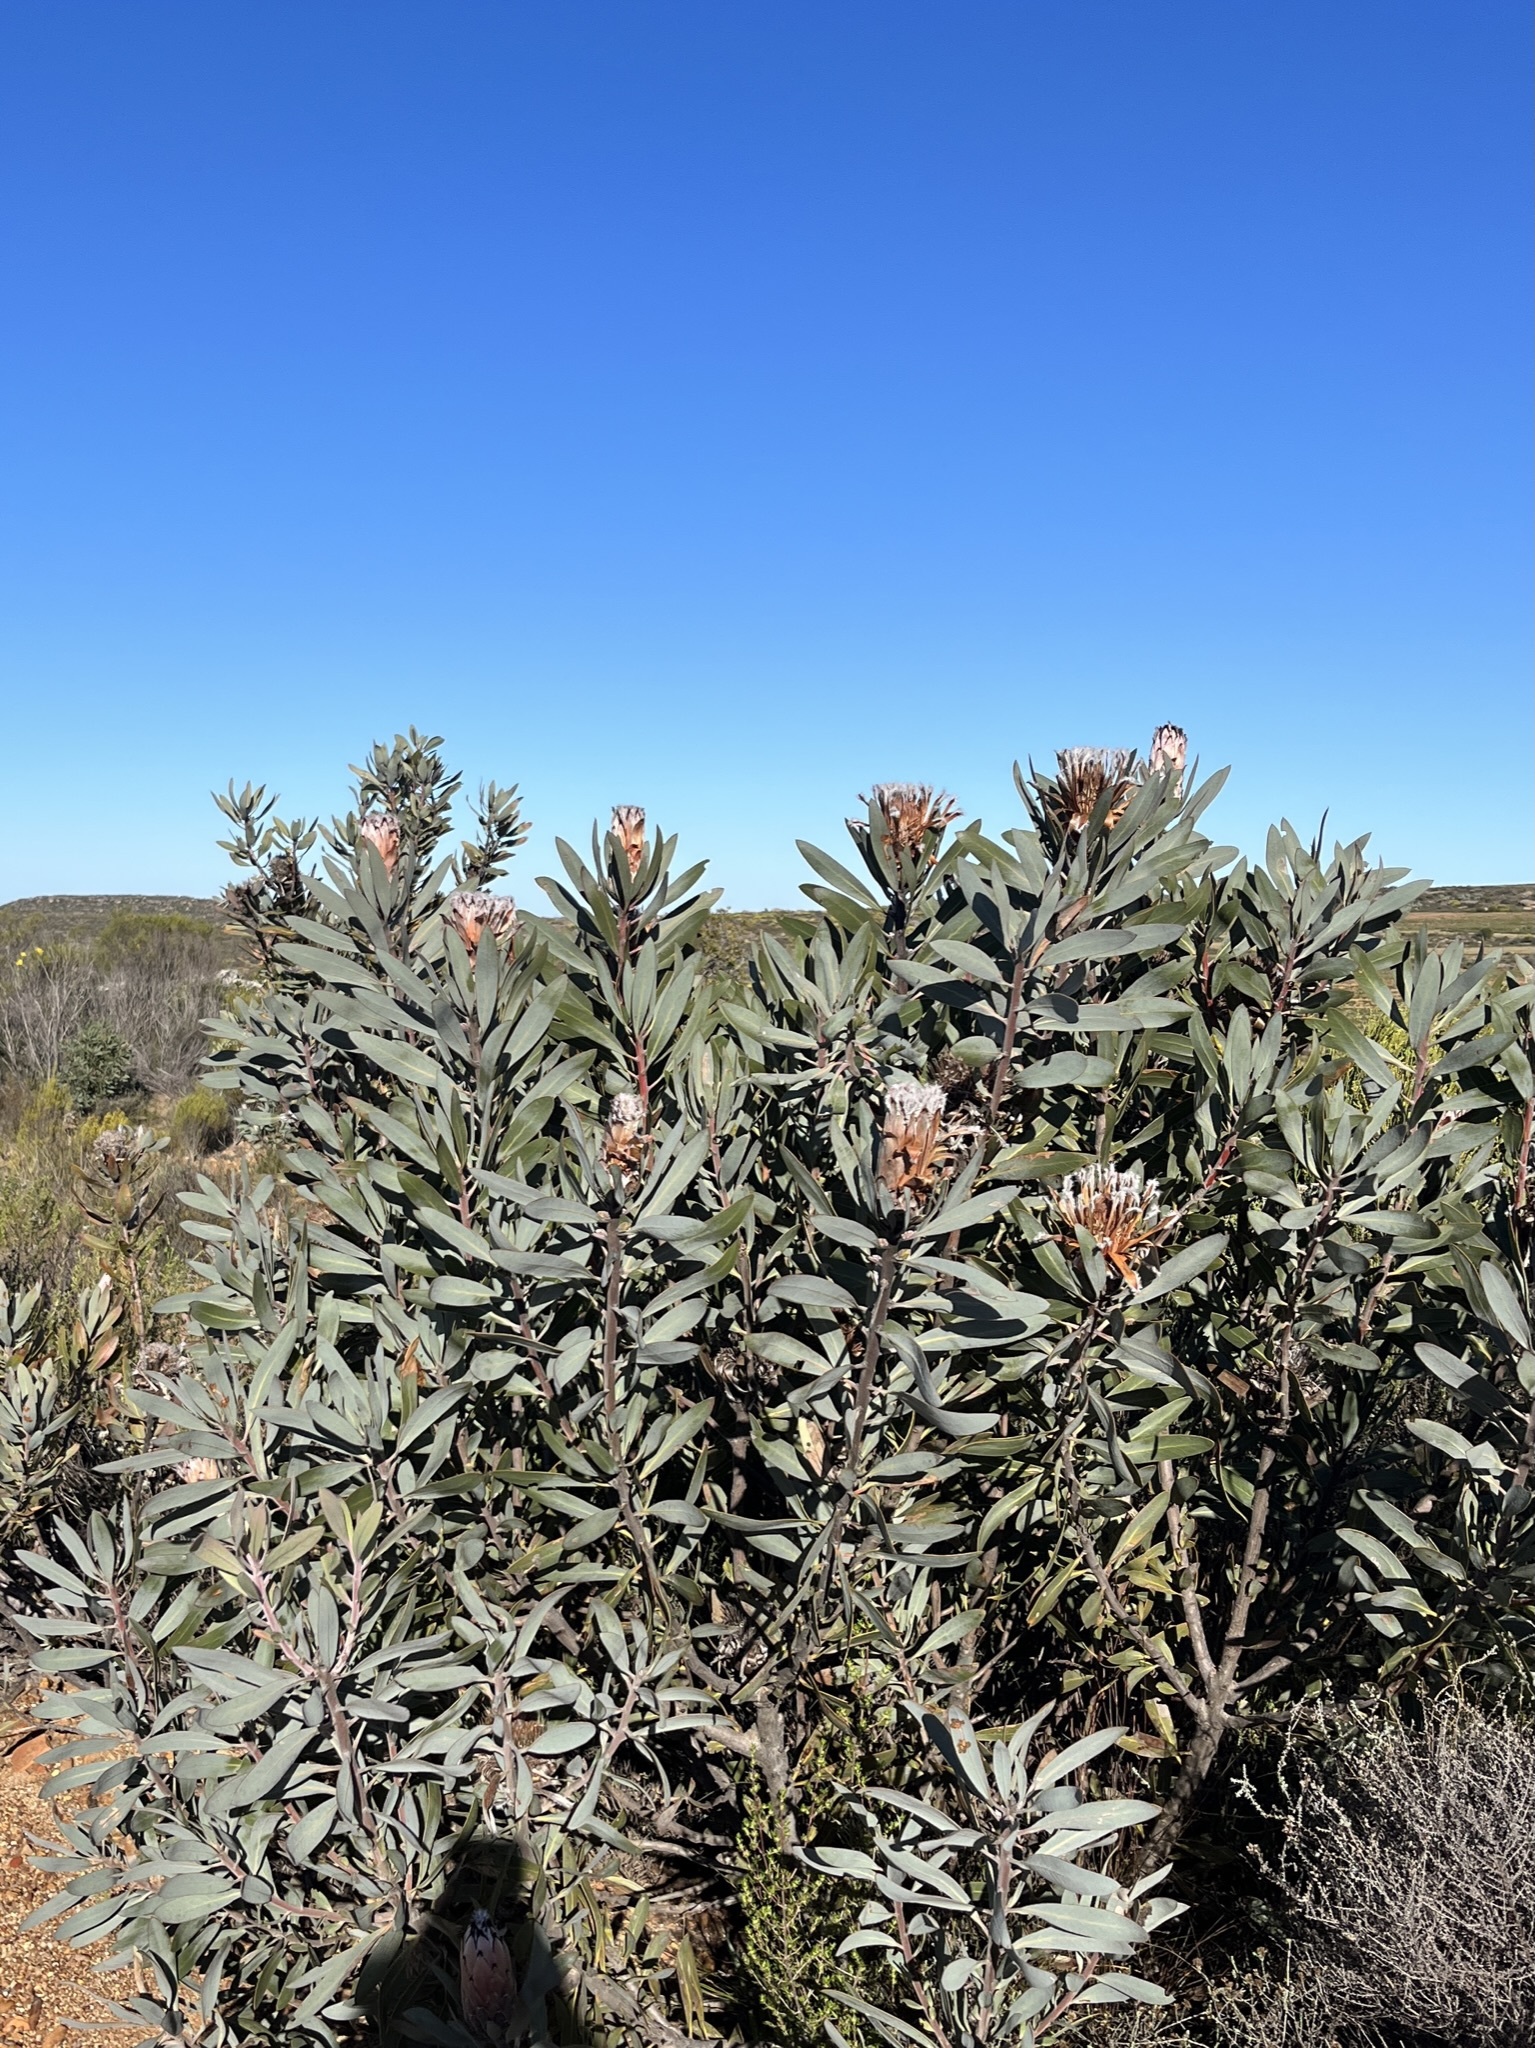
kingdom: Plantae
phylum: Tracheophyta
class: Magnoliopsida
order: Proteales
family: Proteaceae
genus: Protea
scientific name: Protea laurifolia
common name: Grey-leaf sugarbsh
